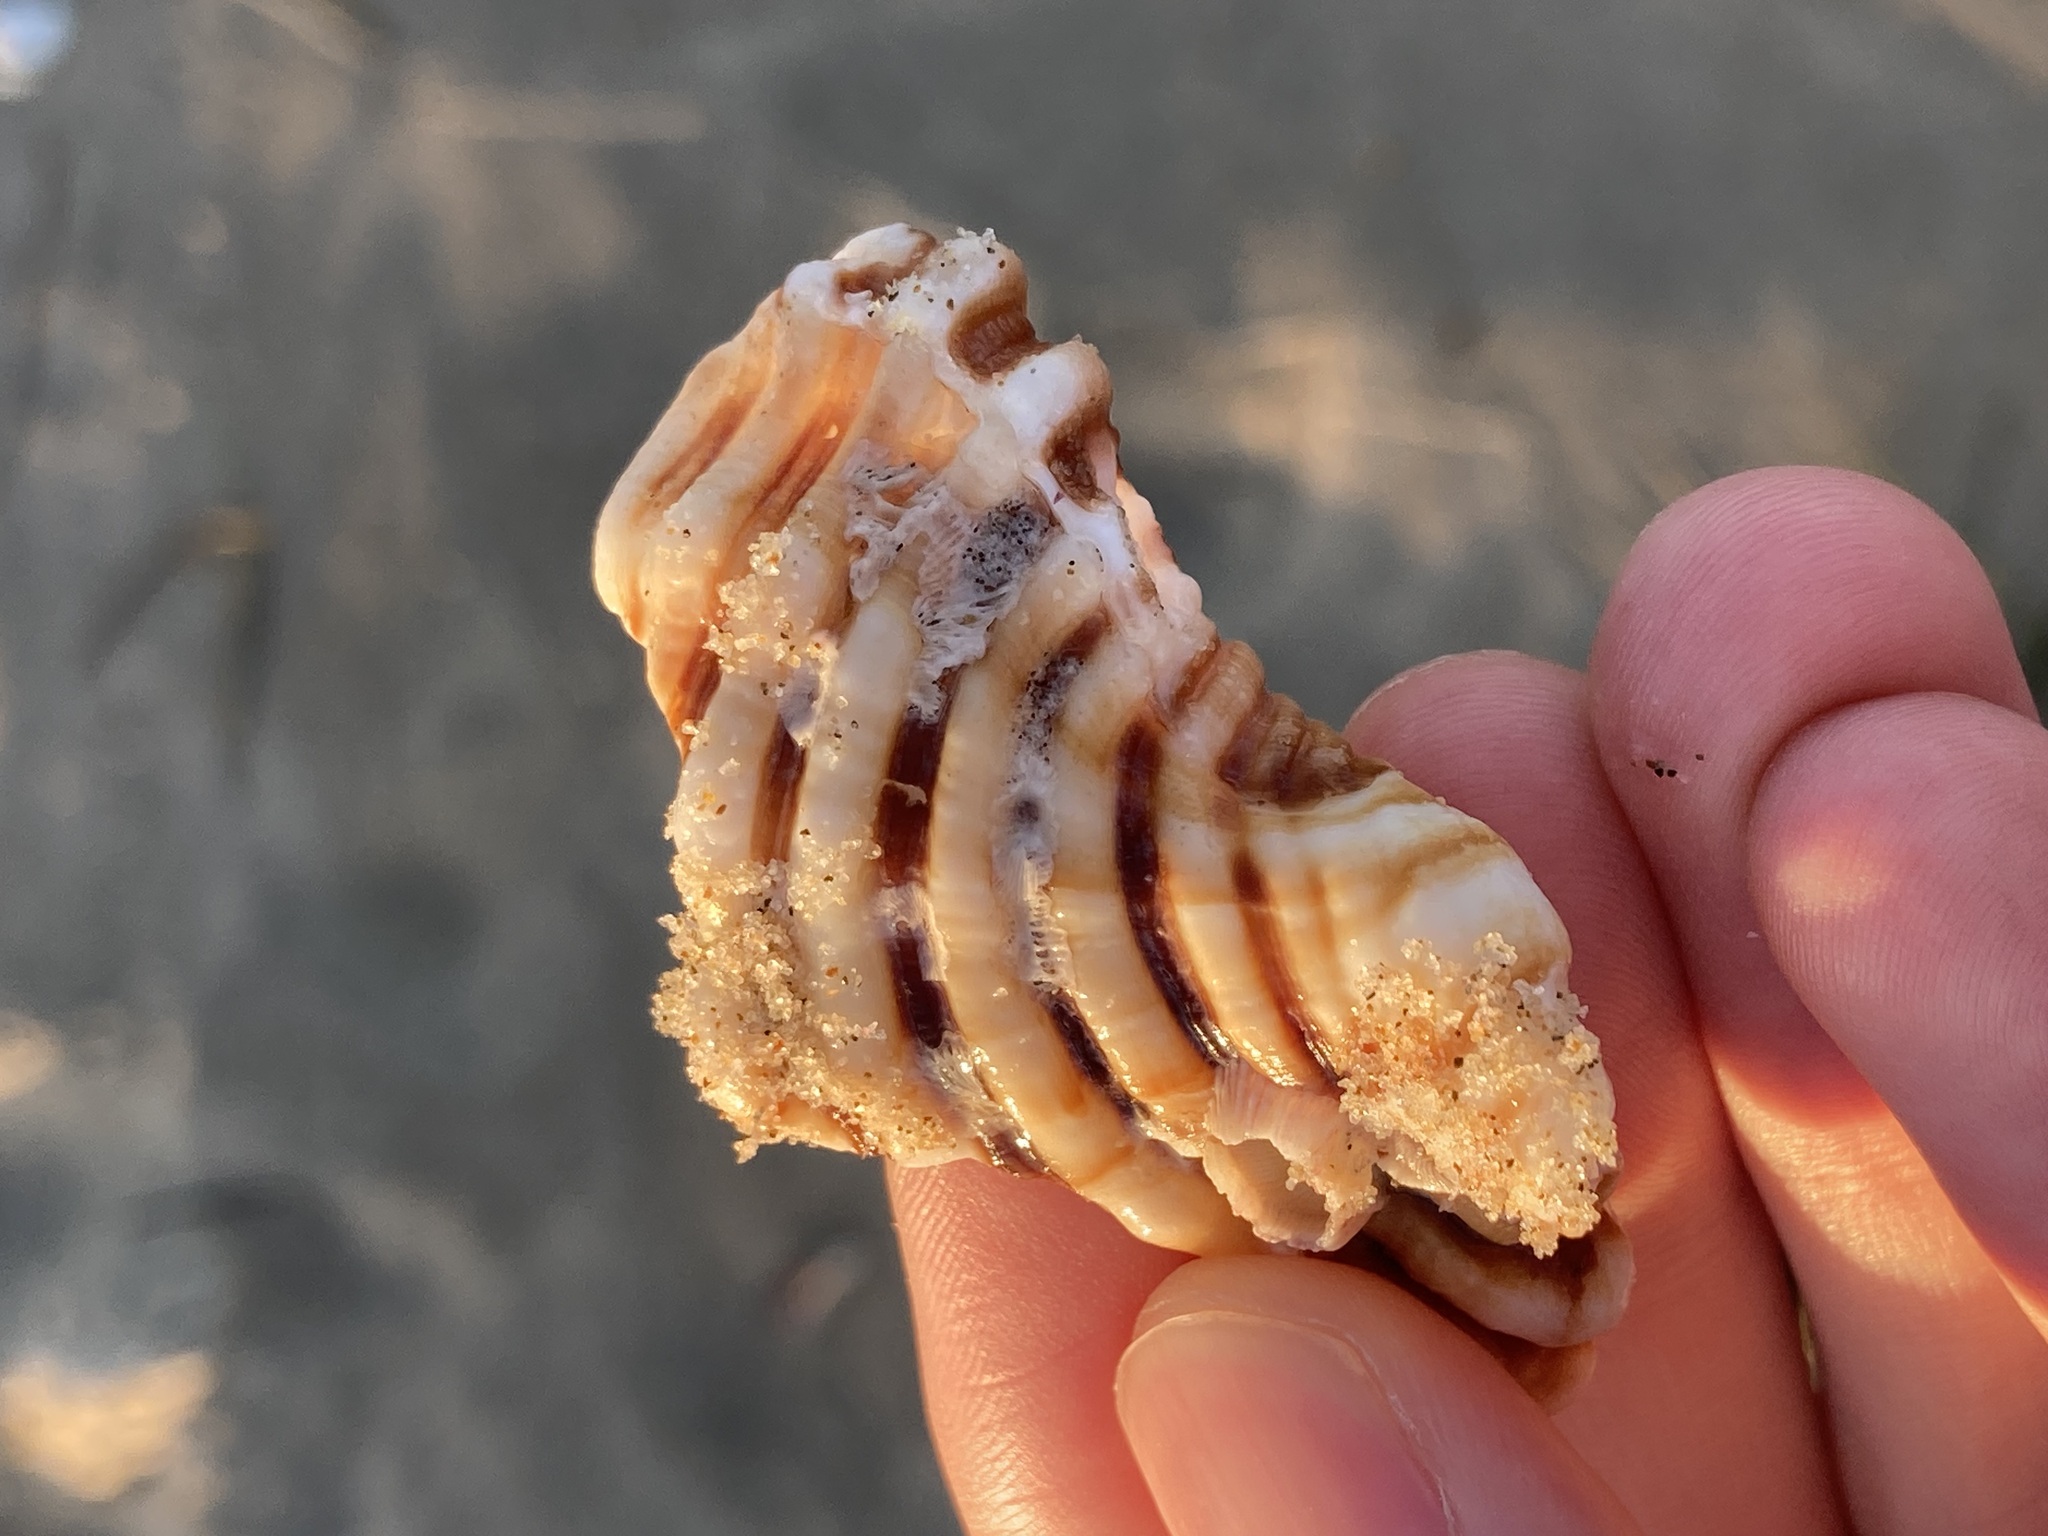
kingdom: Animalia
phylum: Mollusca
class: Gastropoda
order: Littorinimorpha
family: Cymatiidae
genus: Cabestana
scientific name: Cabestana spengleri
